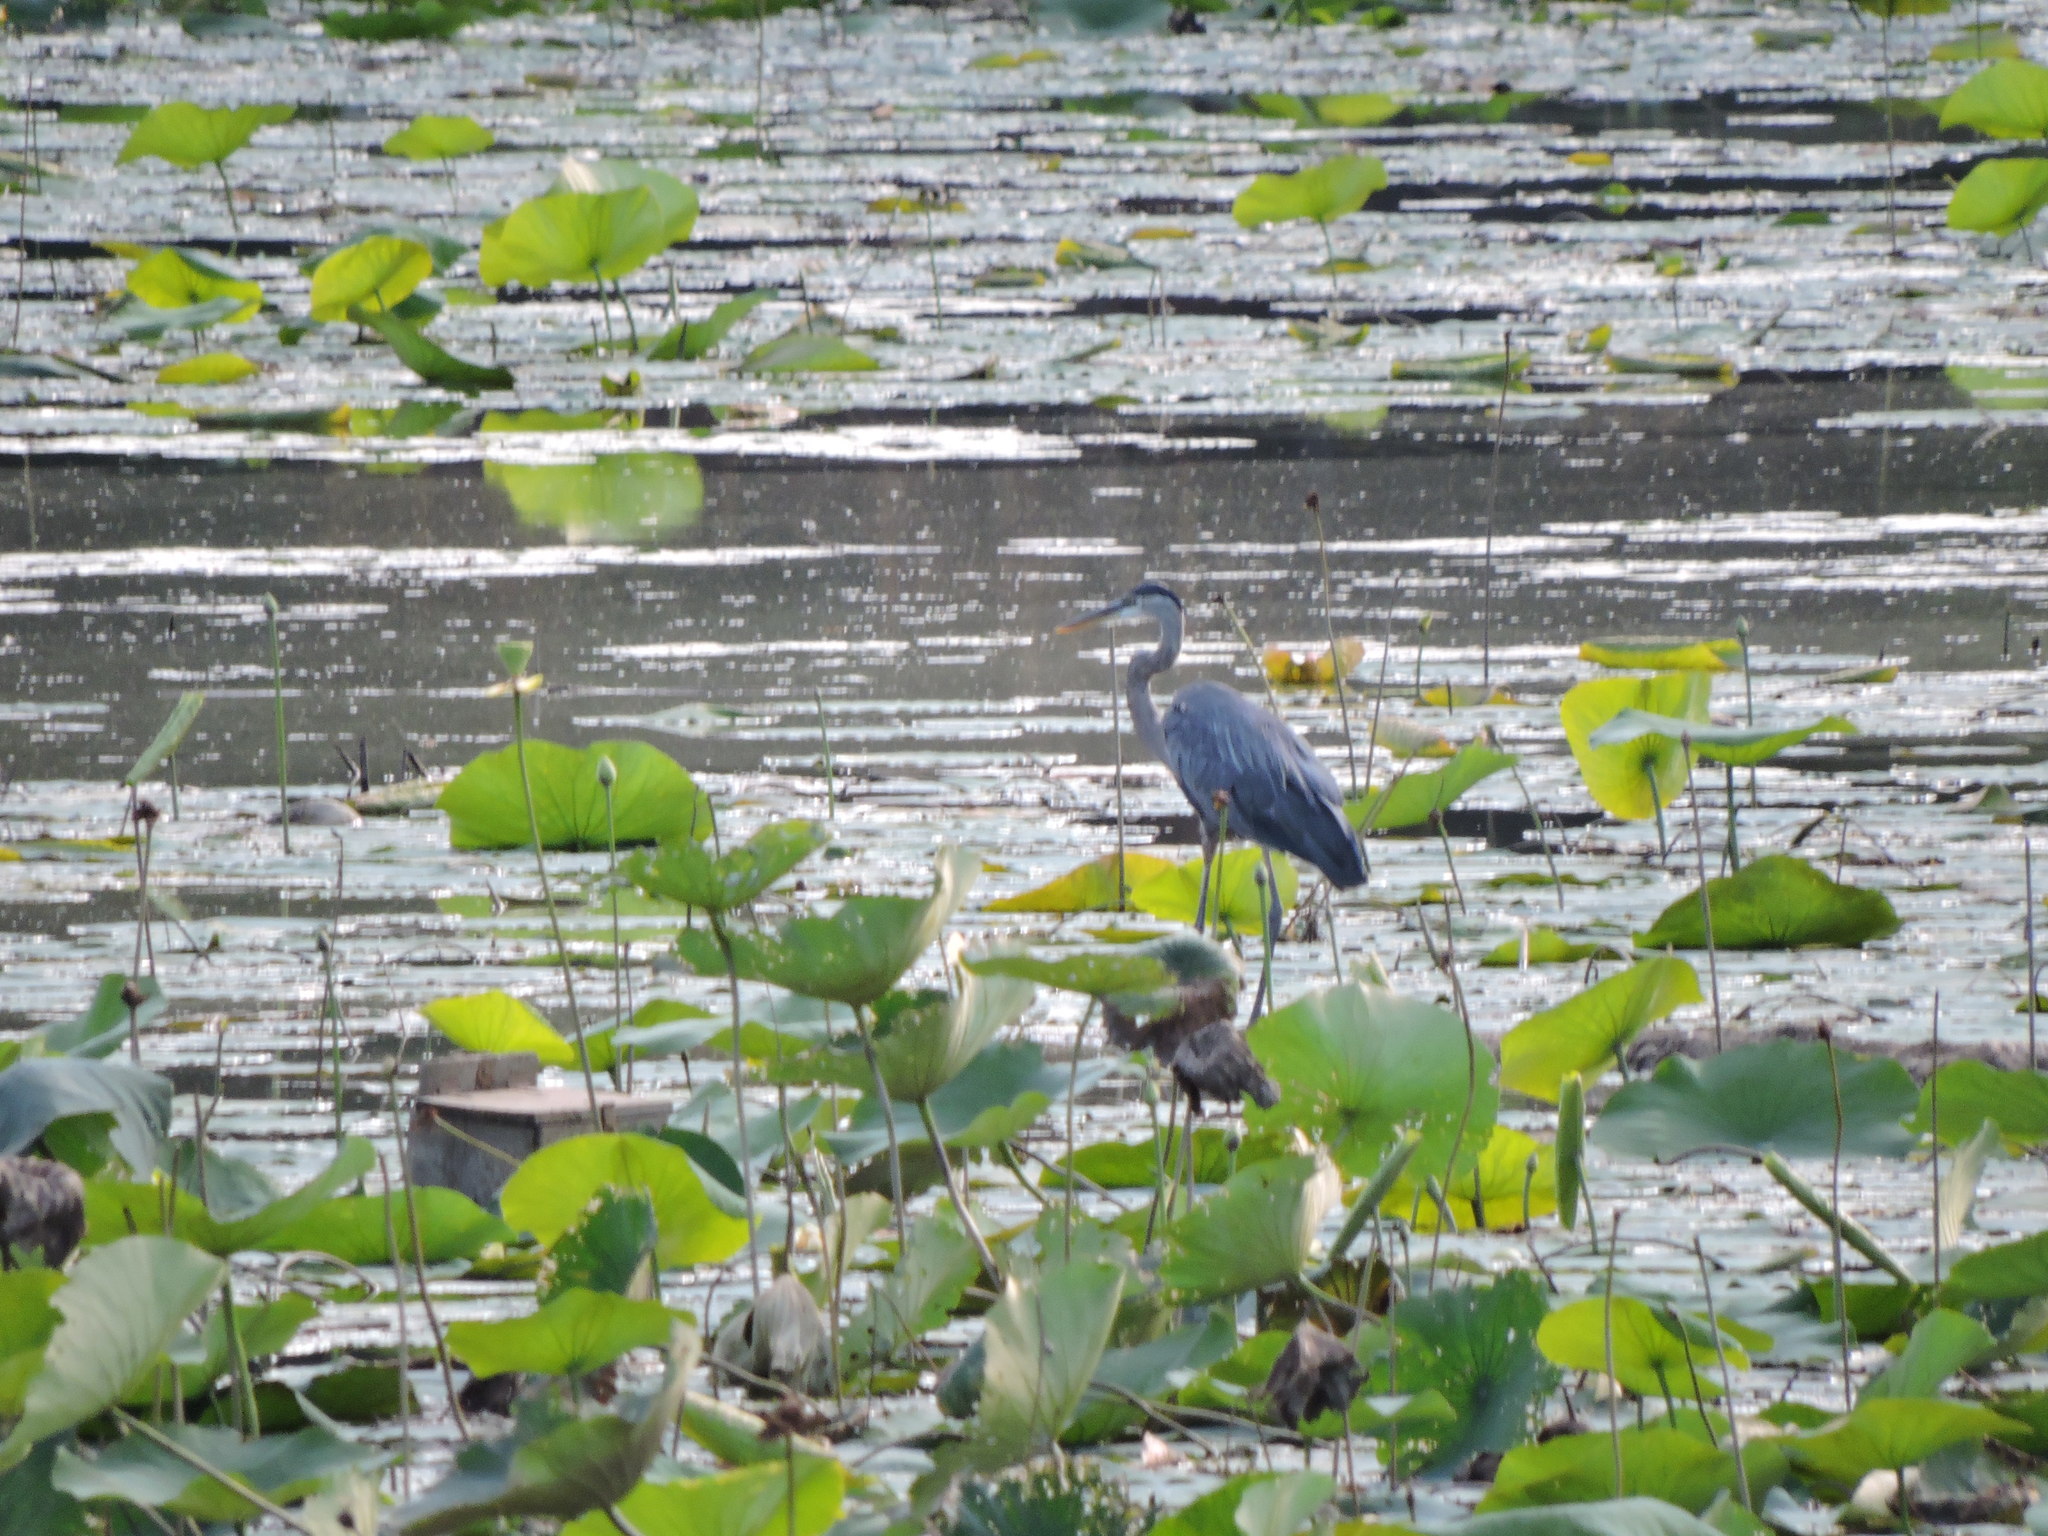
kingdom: Animalia
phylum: Chordata
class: Aves
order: Pelecaniformes
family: Ardeidae
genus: Ardea
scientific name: Ardea herodias
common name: Great blue heron
